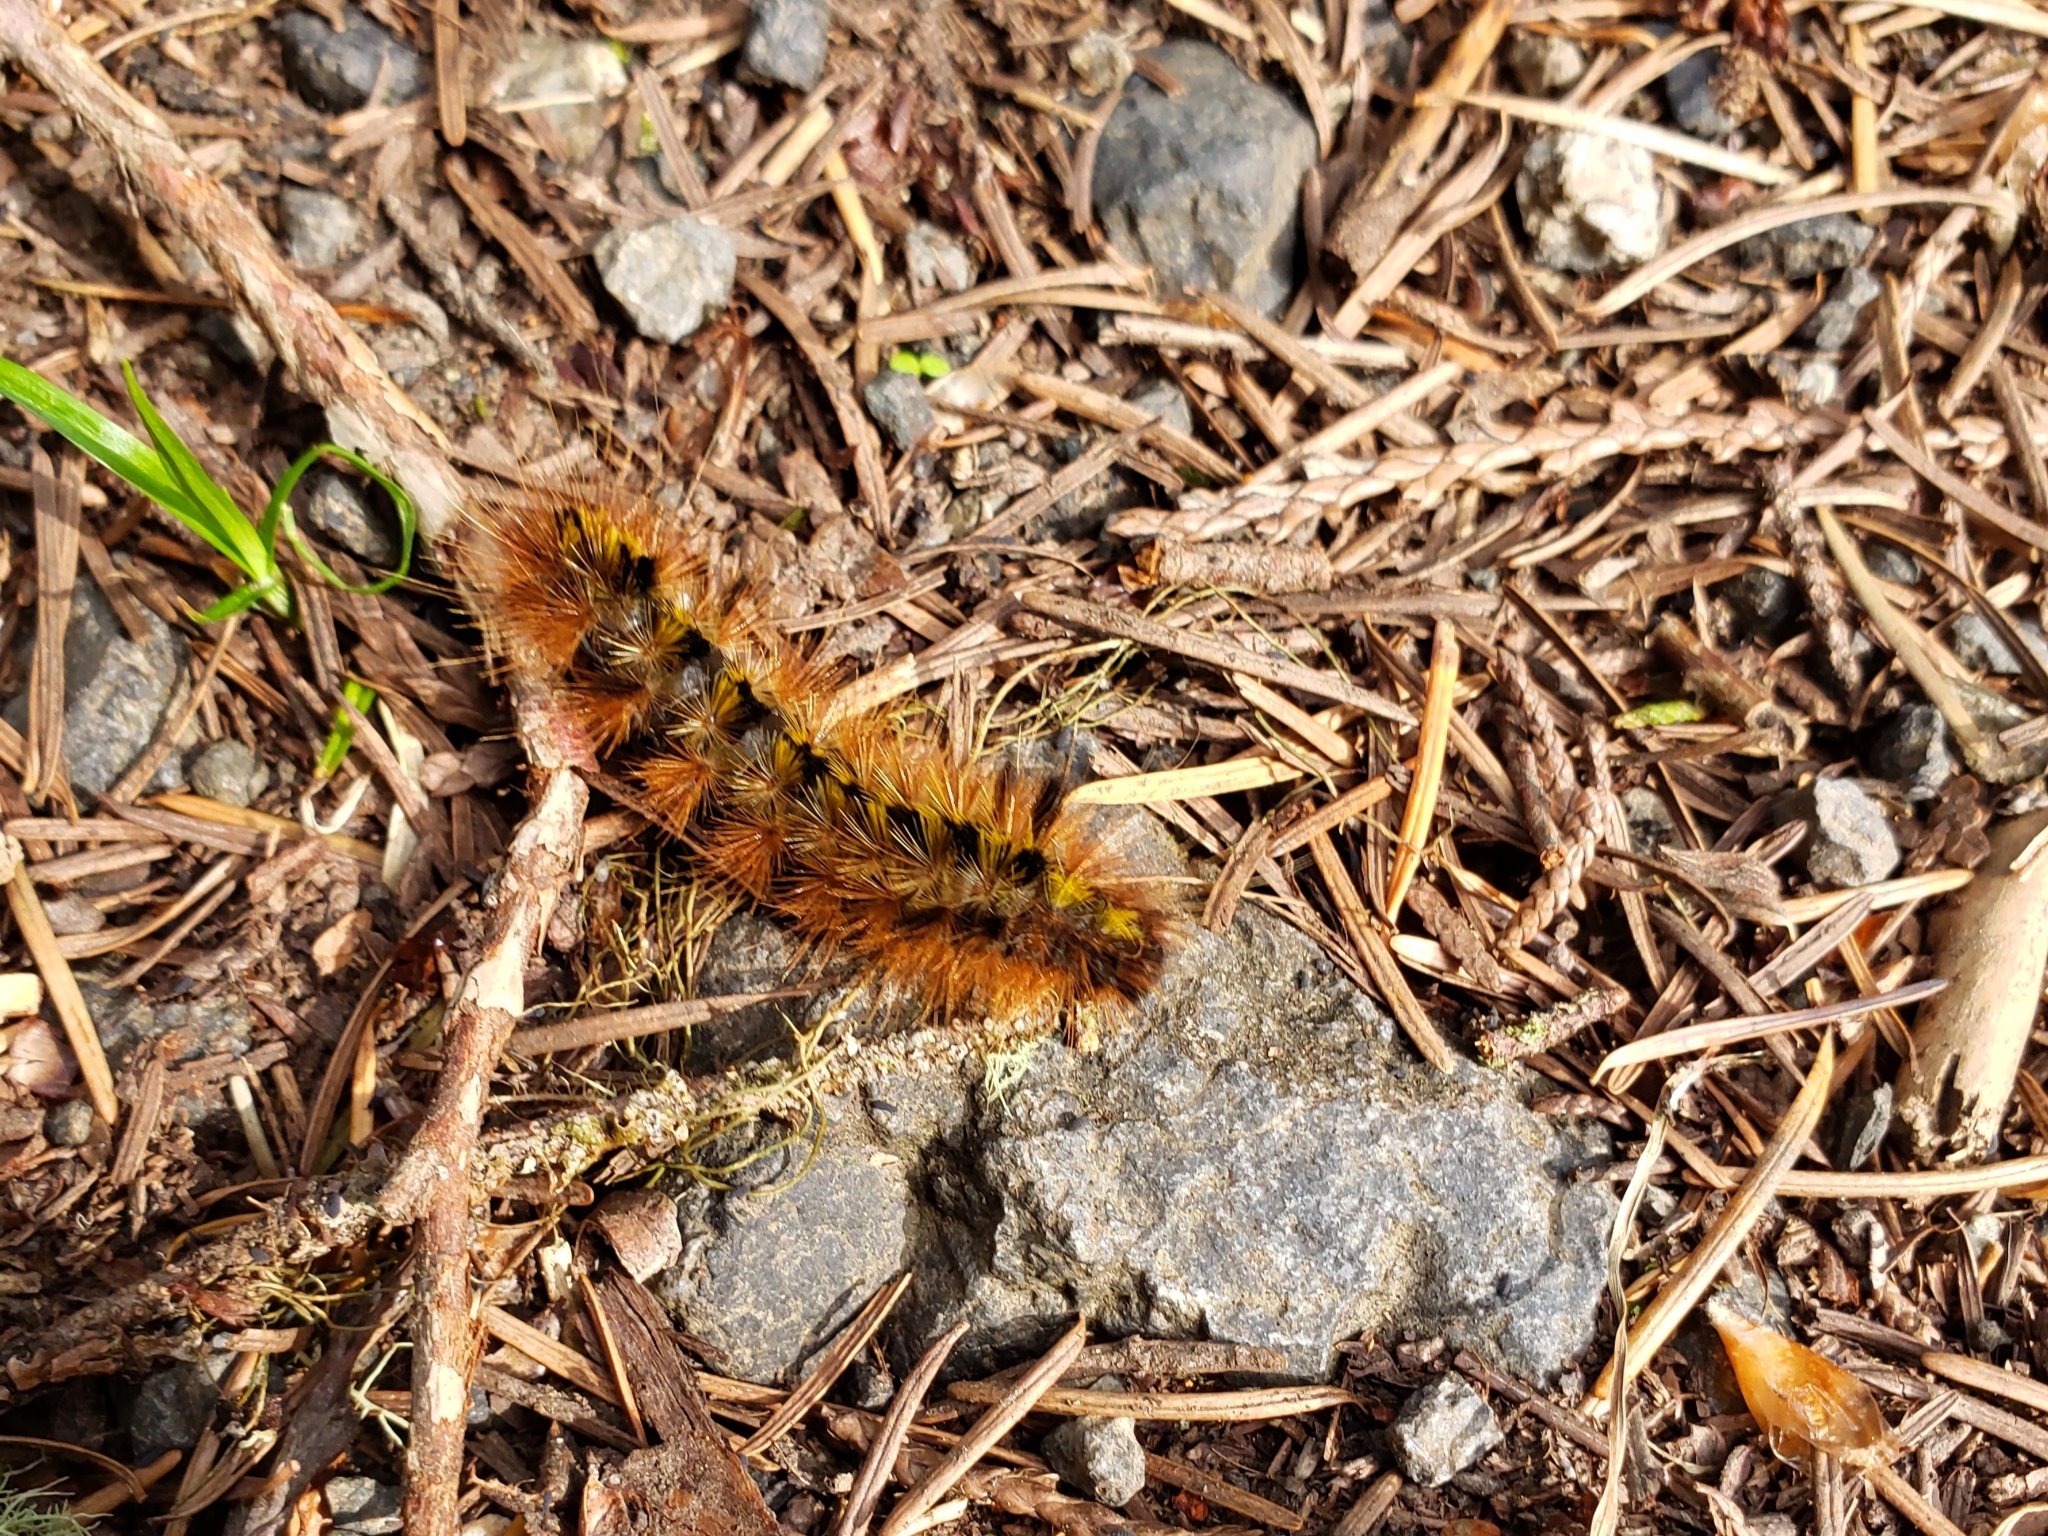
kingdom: Animalia
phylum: Arthropoda
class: Insecta
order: Lepidoptera
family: Erebidae
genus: Lophocampa
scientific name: Lophocampa argentata
